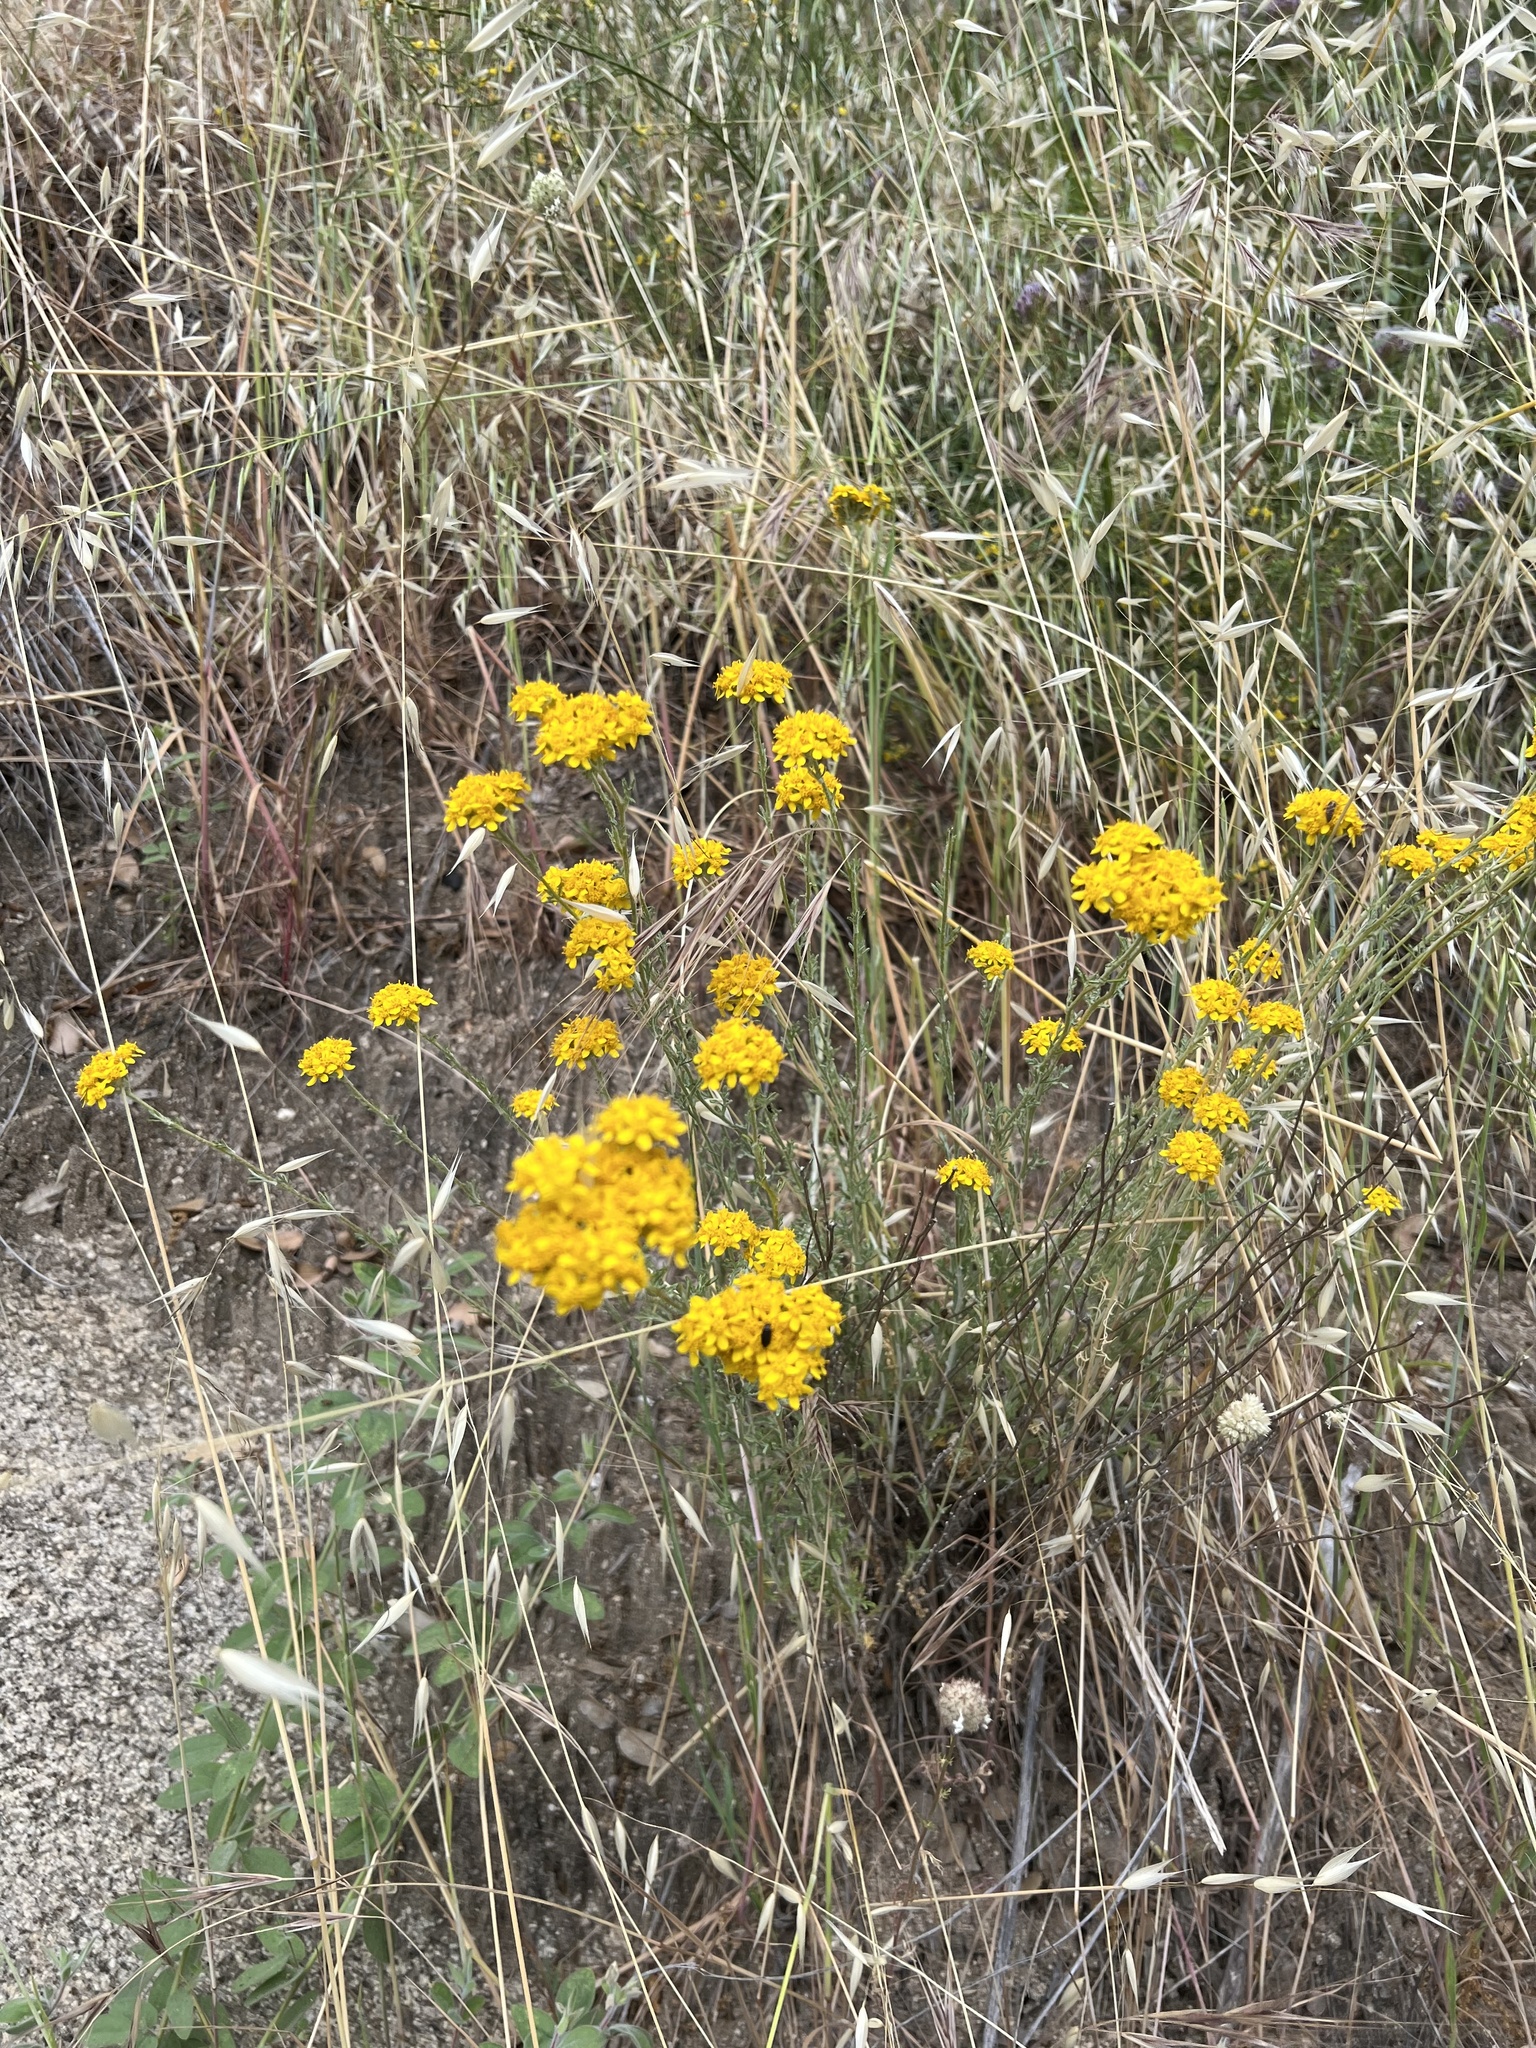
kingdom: Plantae
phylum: Tracheophyta
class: Magnoliopsida
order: Asterales
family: Asteraceae
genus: Eriophyllum
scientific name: Eriophyllum confertiflorum
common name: Golden-yarrow
